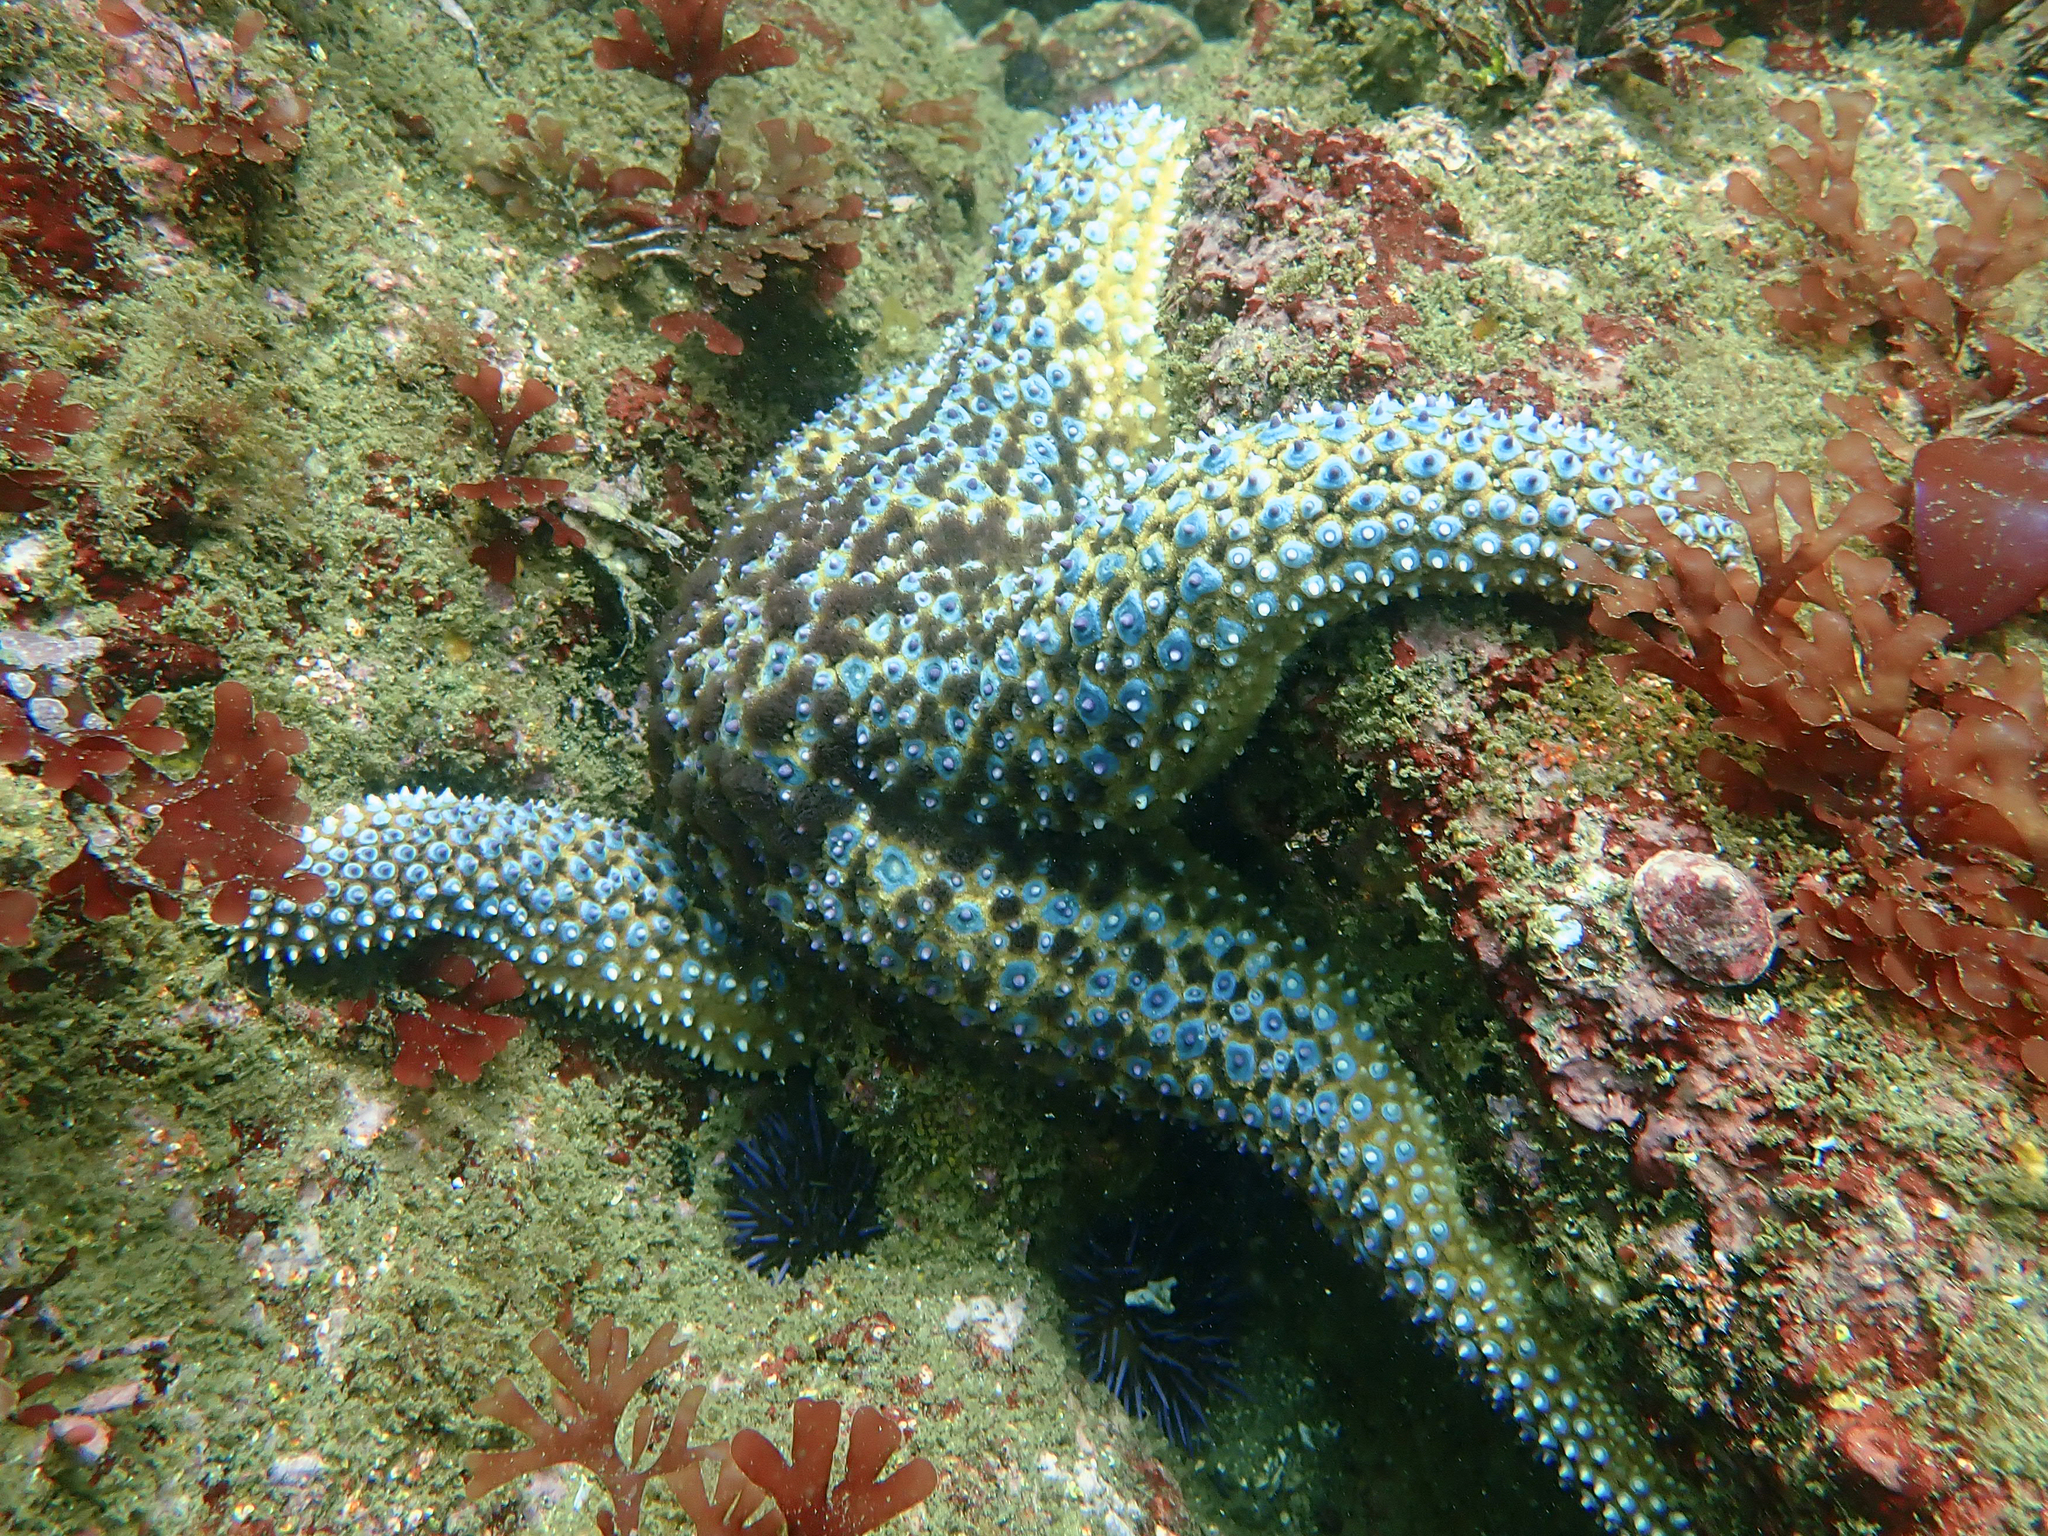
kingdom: Animalia
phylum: Echinodermata
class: Asteroidea
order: Forcipulatida
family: Asteriidae
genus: Pisaster
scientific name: Pisaster giganteus
